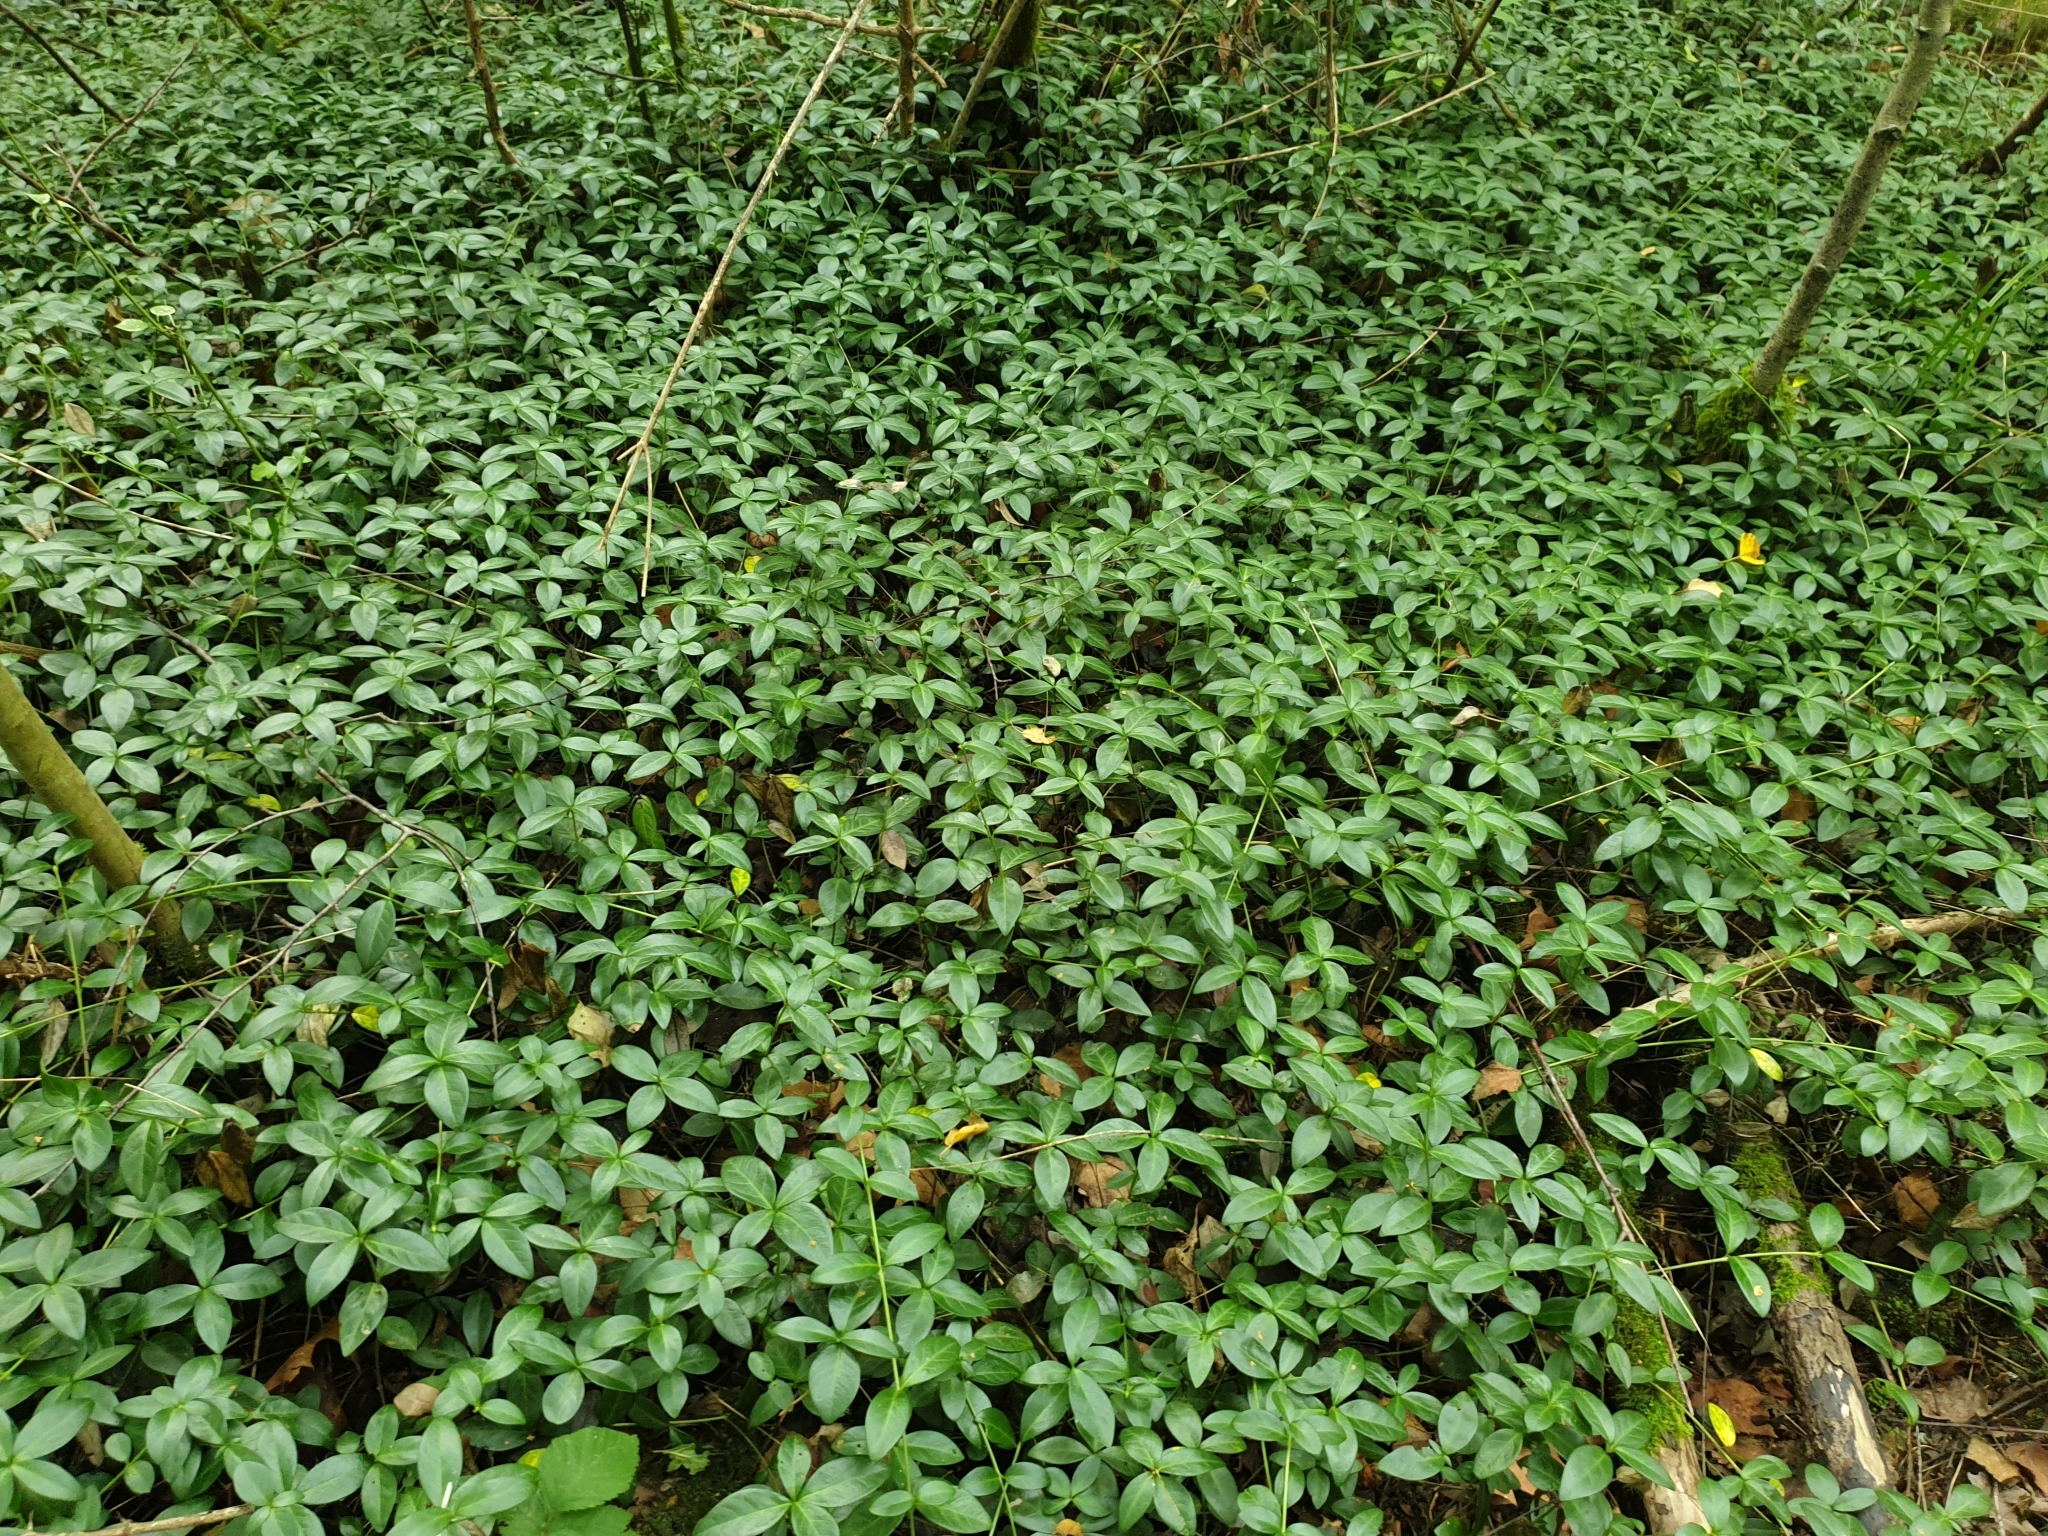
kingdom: Plantae
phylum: Tracheophyta
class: Magnoliopsida
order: Gentianales
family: Apocynaceae
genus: Vinca
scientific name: Vinca minor
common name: Lesser periwinkle
